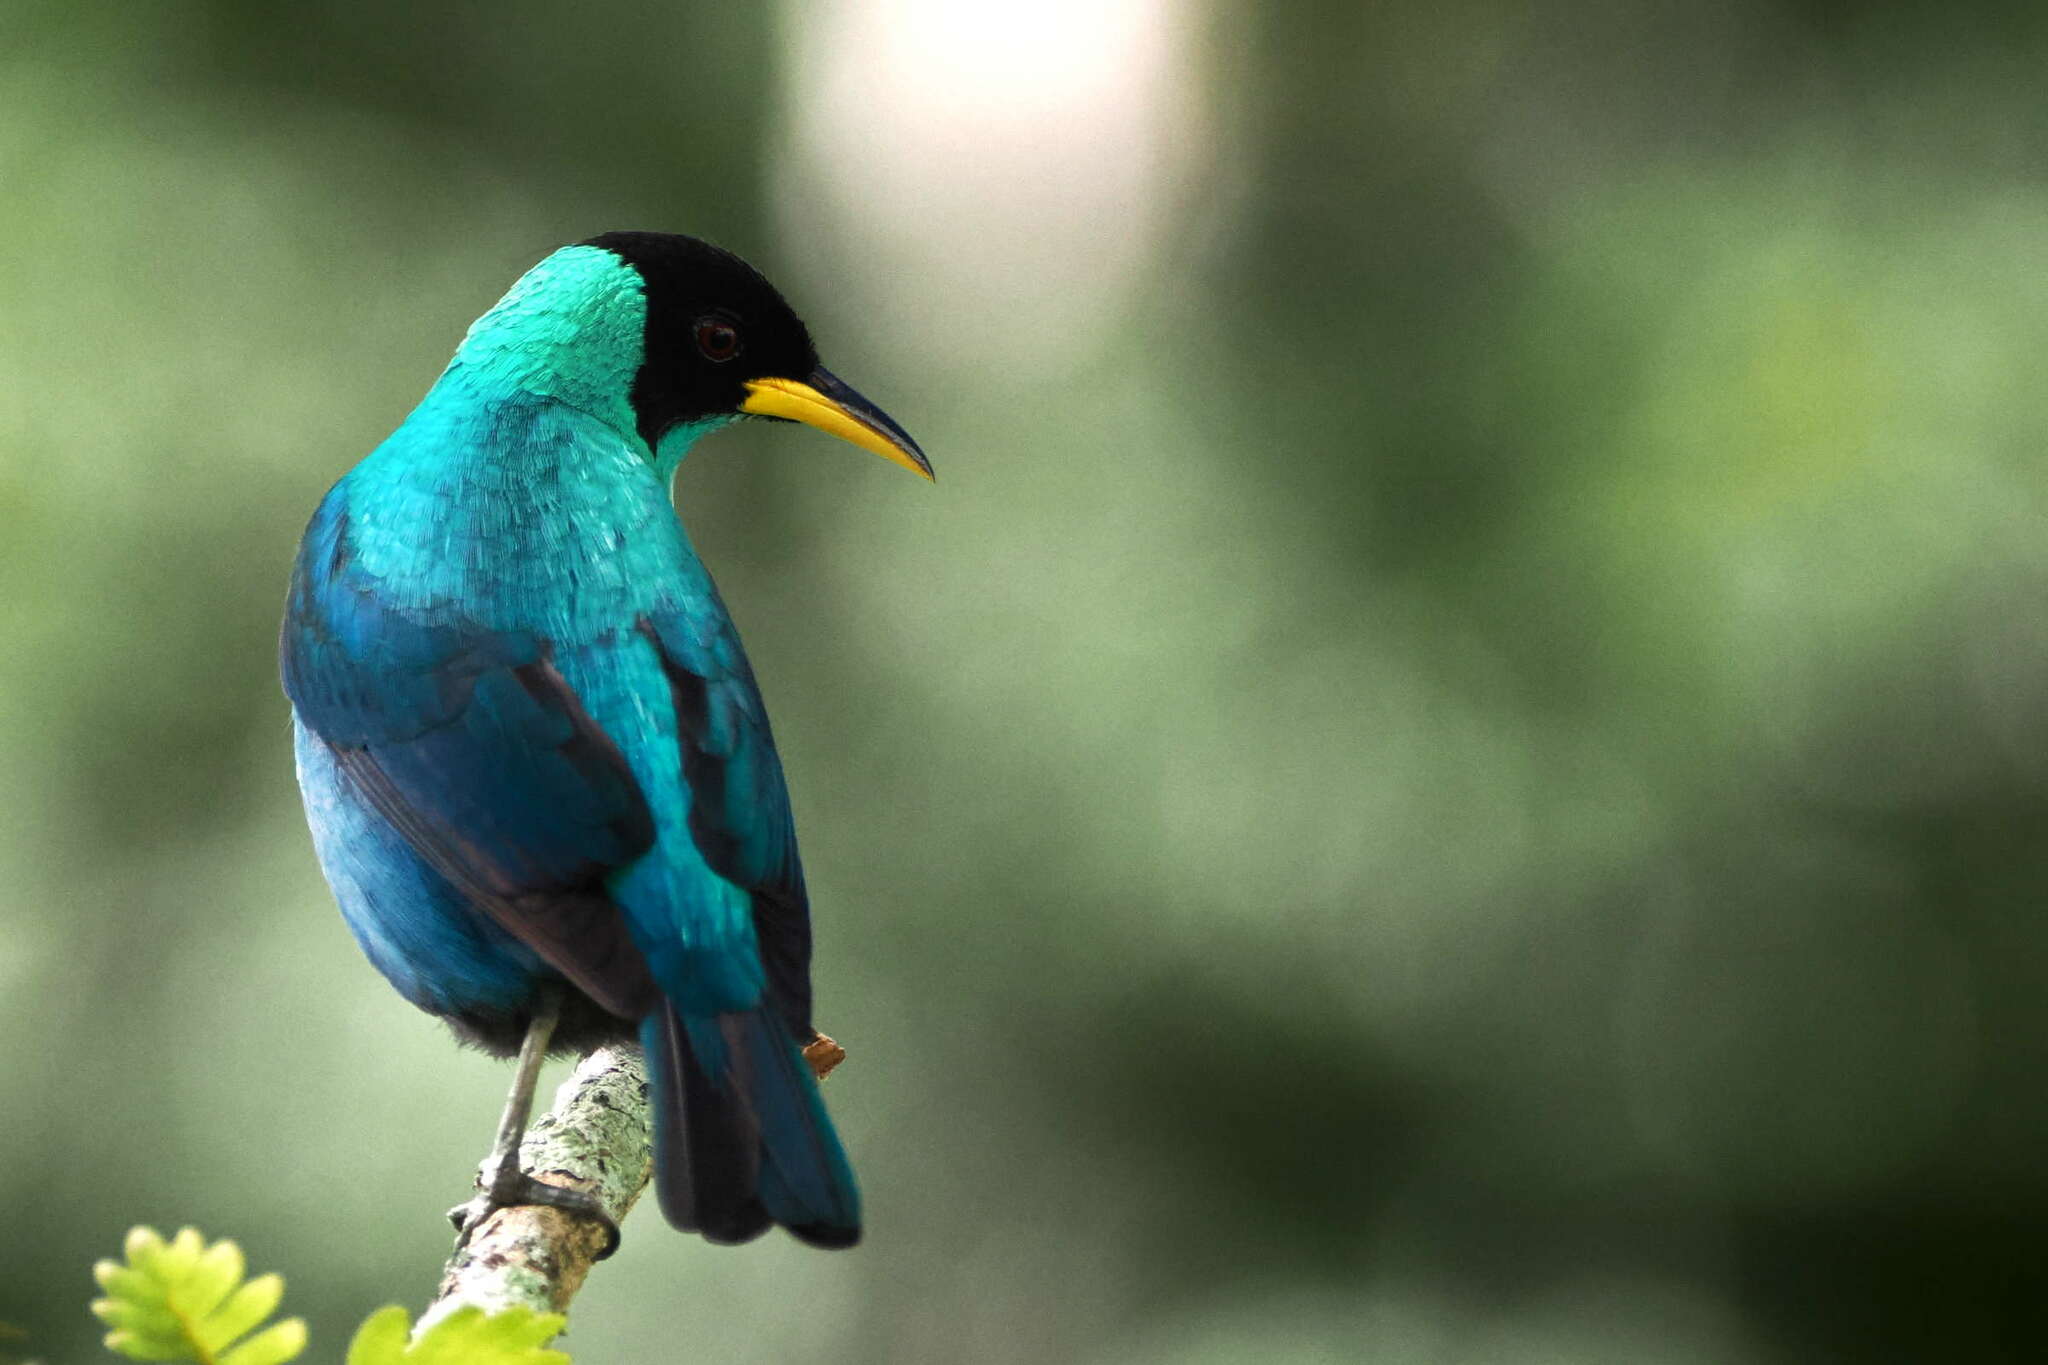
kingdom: Animalia
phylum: Chordata
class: Aves
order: Passeriformes
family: Thraupidae
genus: Chlorophanes
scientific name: Chlorophanes spiza
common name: Green honeycreeper
